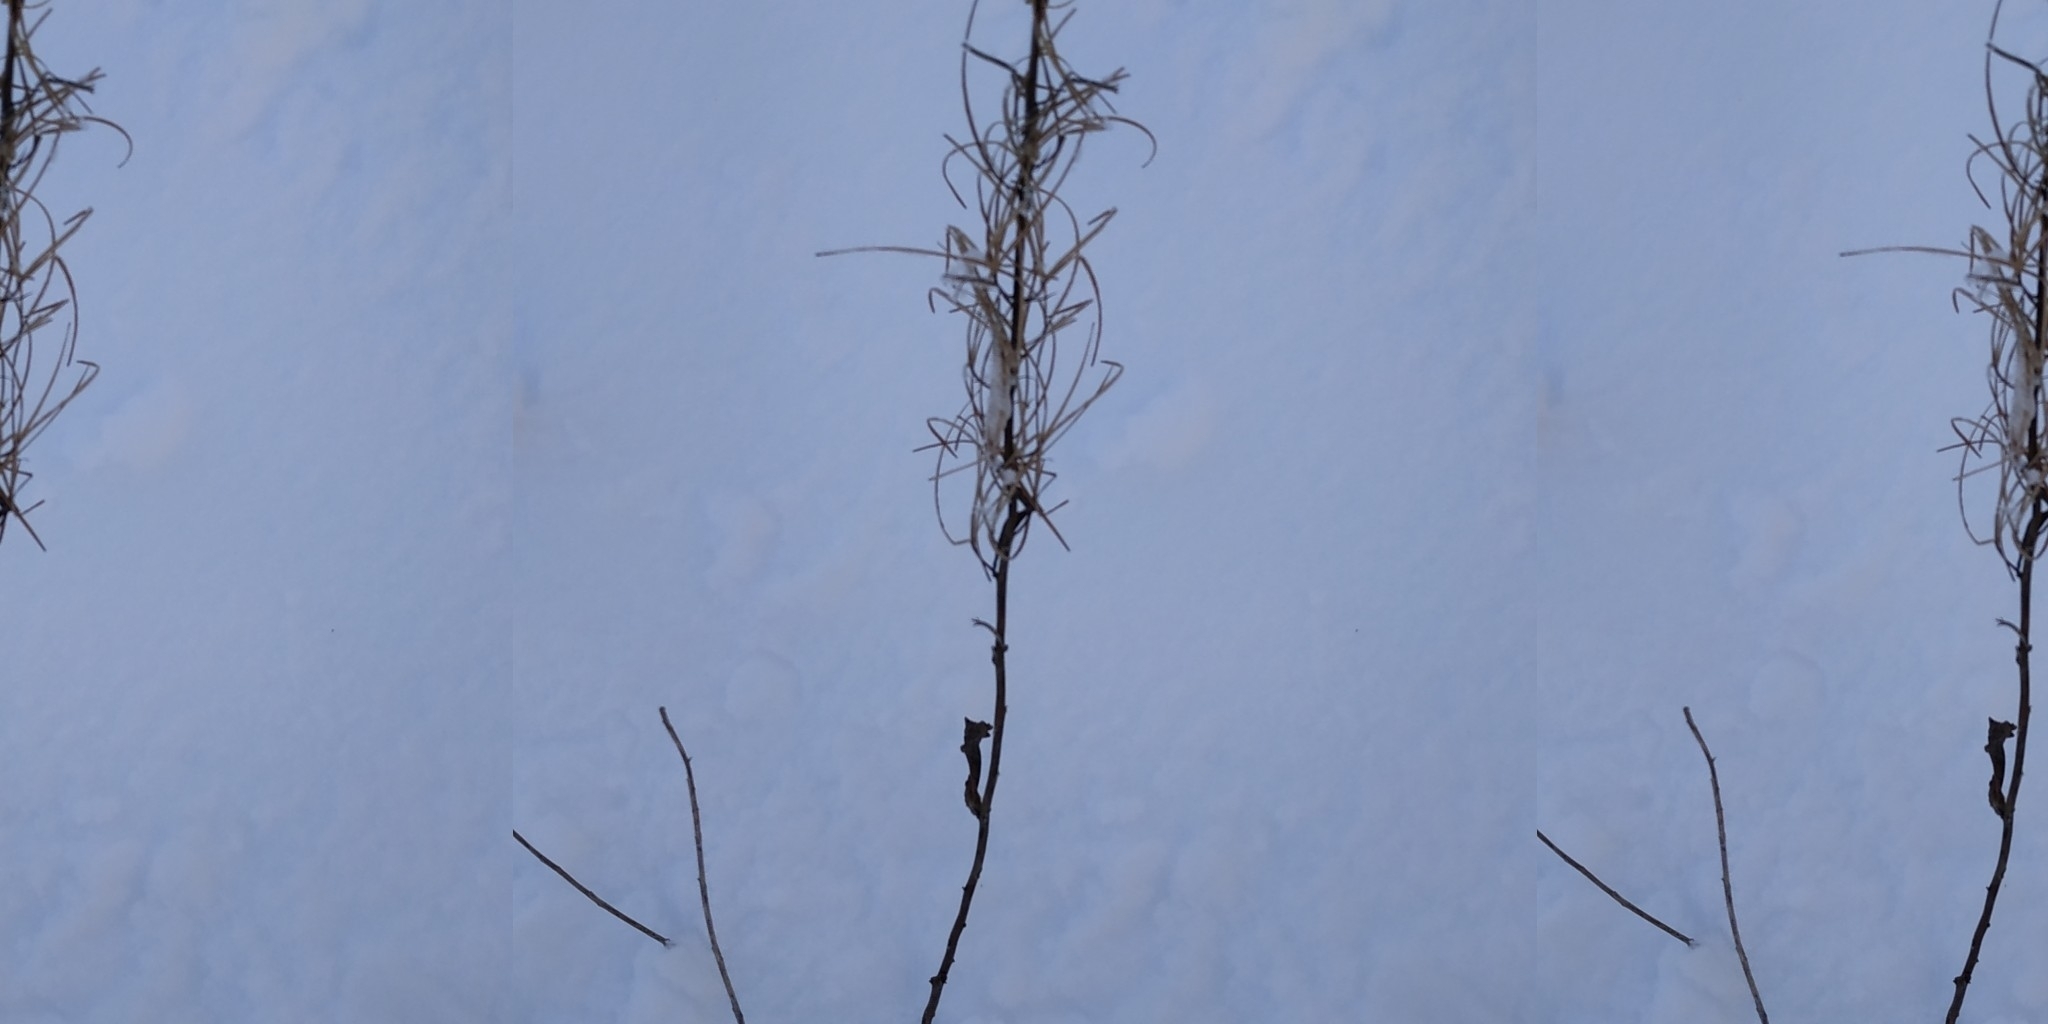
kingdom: Plantae
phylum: Tracheophyta
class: Magnoliopsida
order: Myrtales
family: Onagraceae
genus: Chamaenerion
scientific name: Chamaenerion angustifolium
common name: Fireweed
